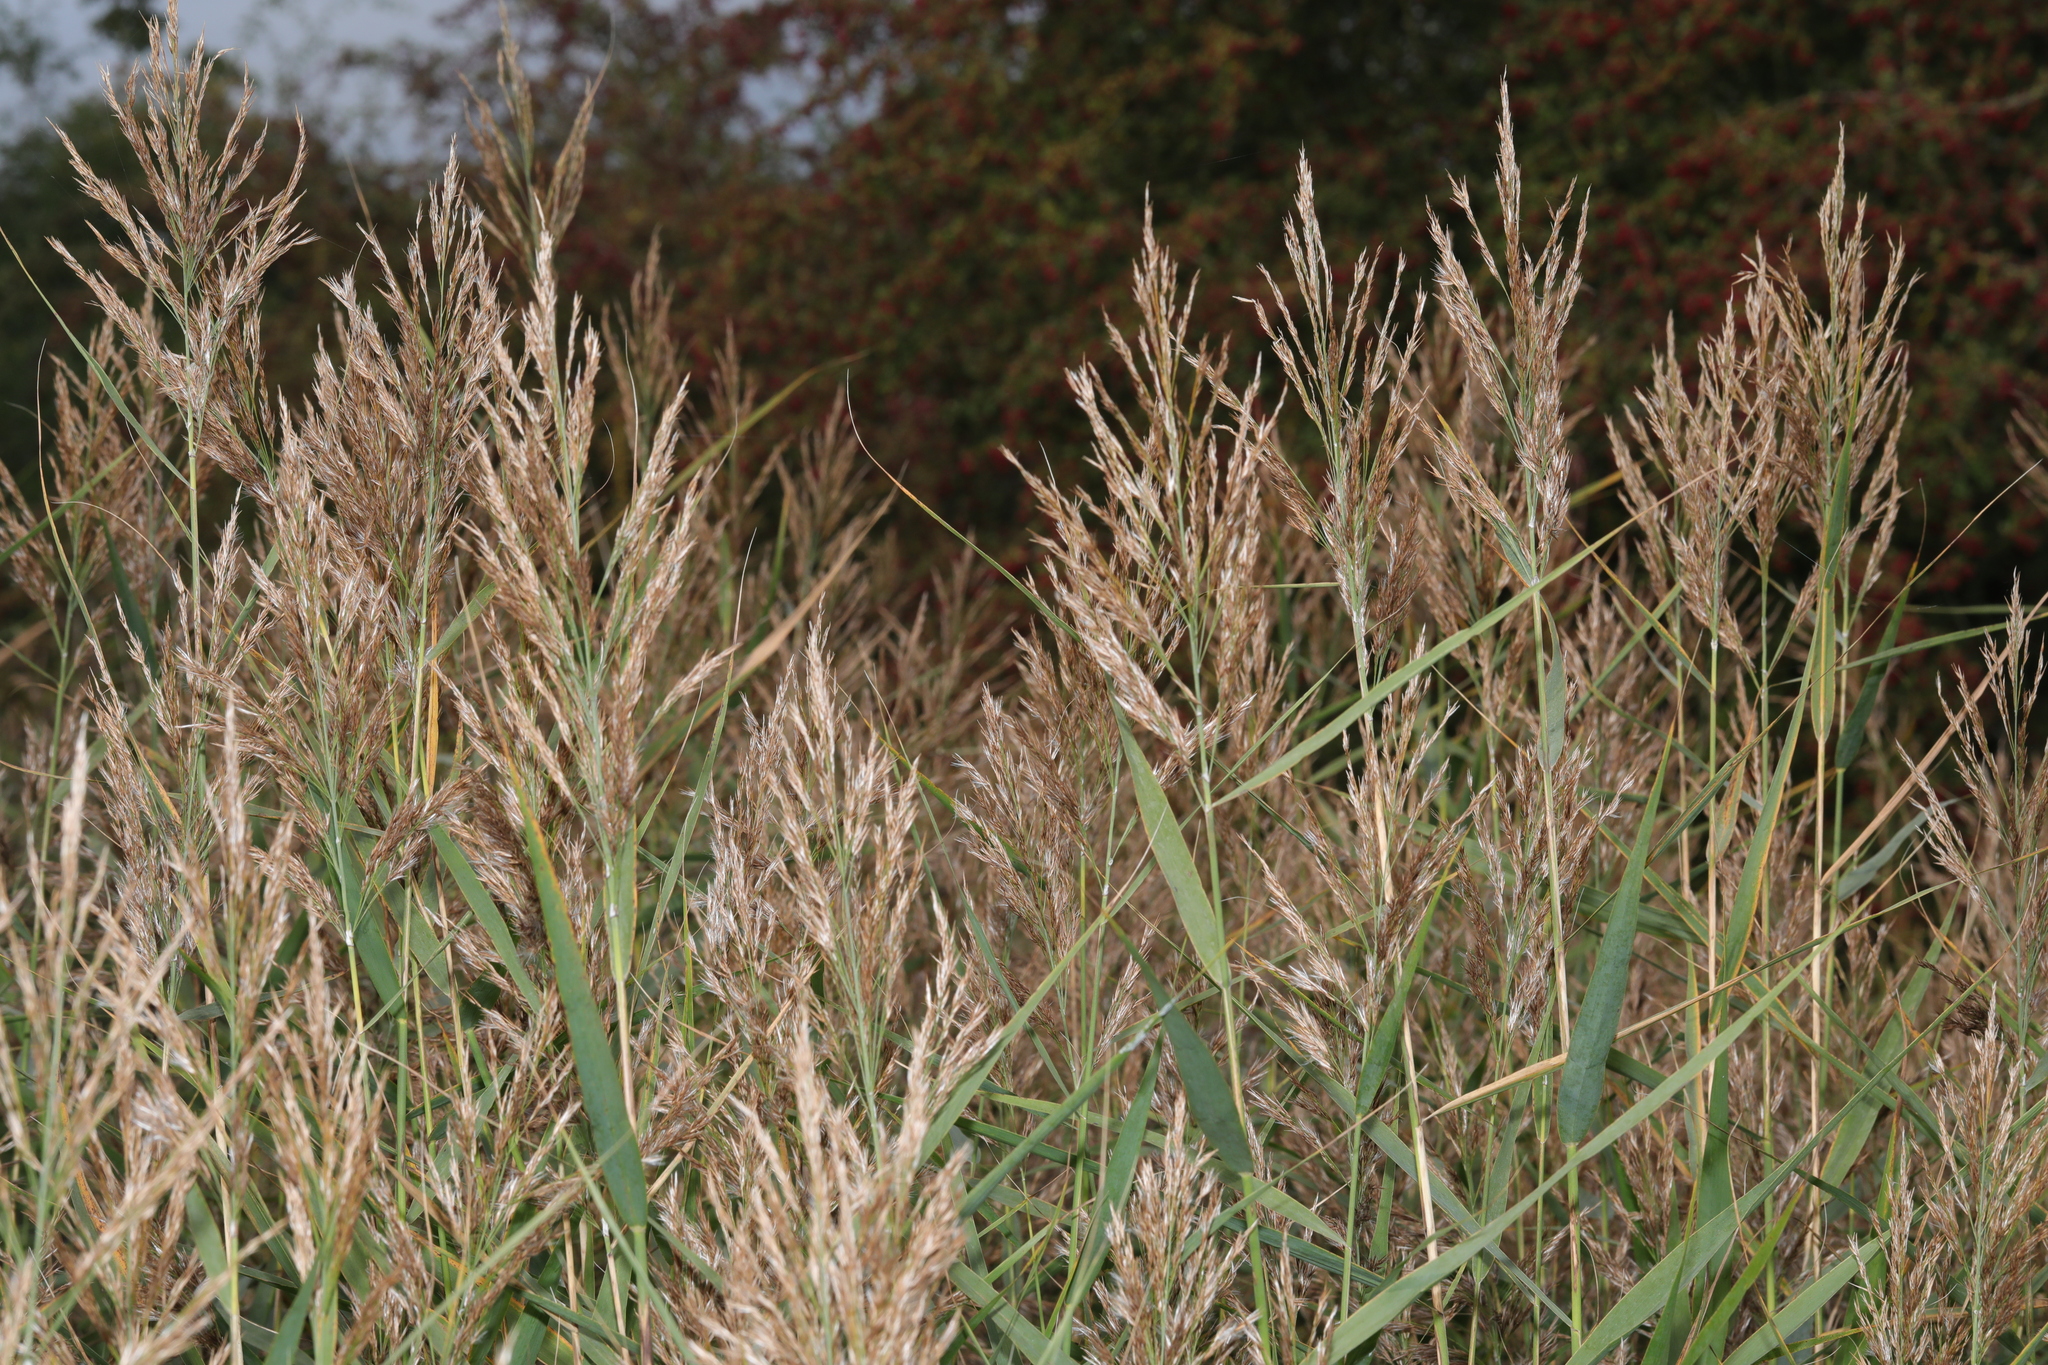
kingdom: Plantae
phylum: Tracheophyta
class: Liliopsida
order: Poales
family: Poaceae
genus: Phragmites
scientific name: Phragmites australis
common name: Common reed
